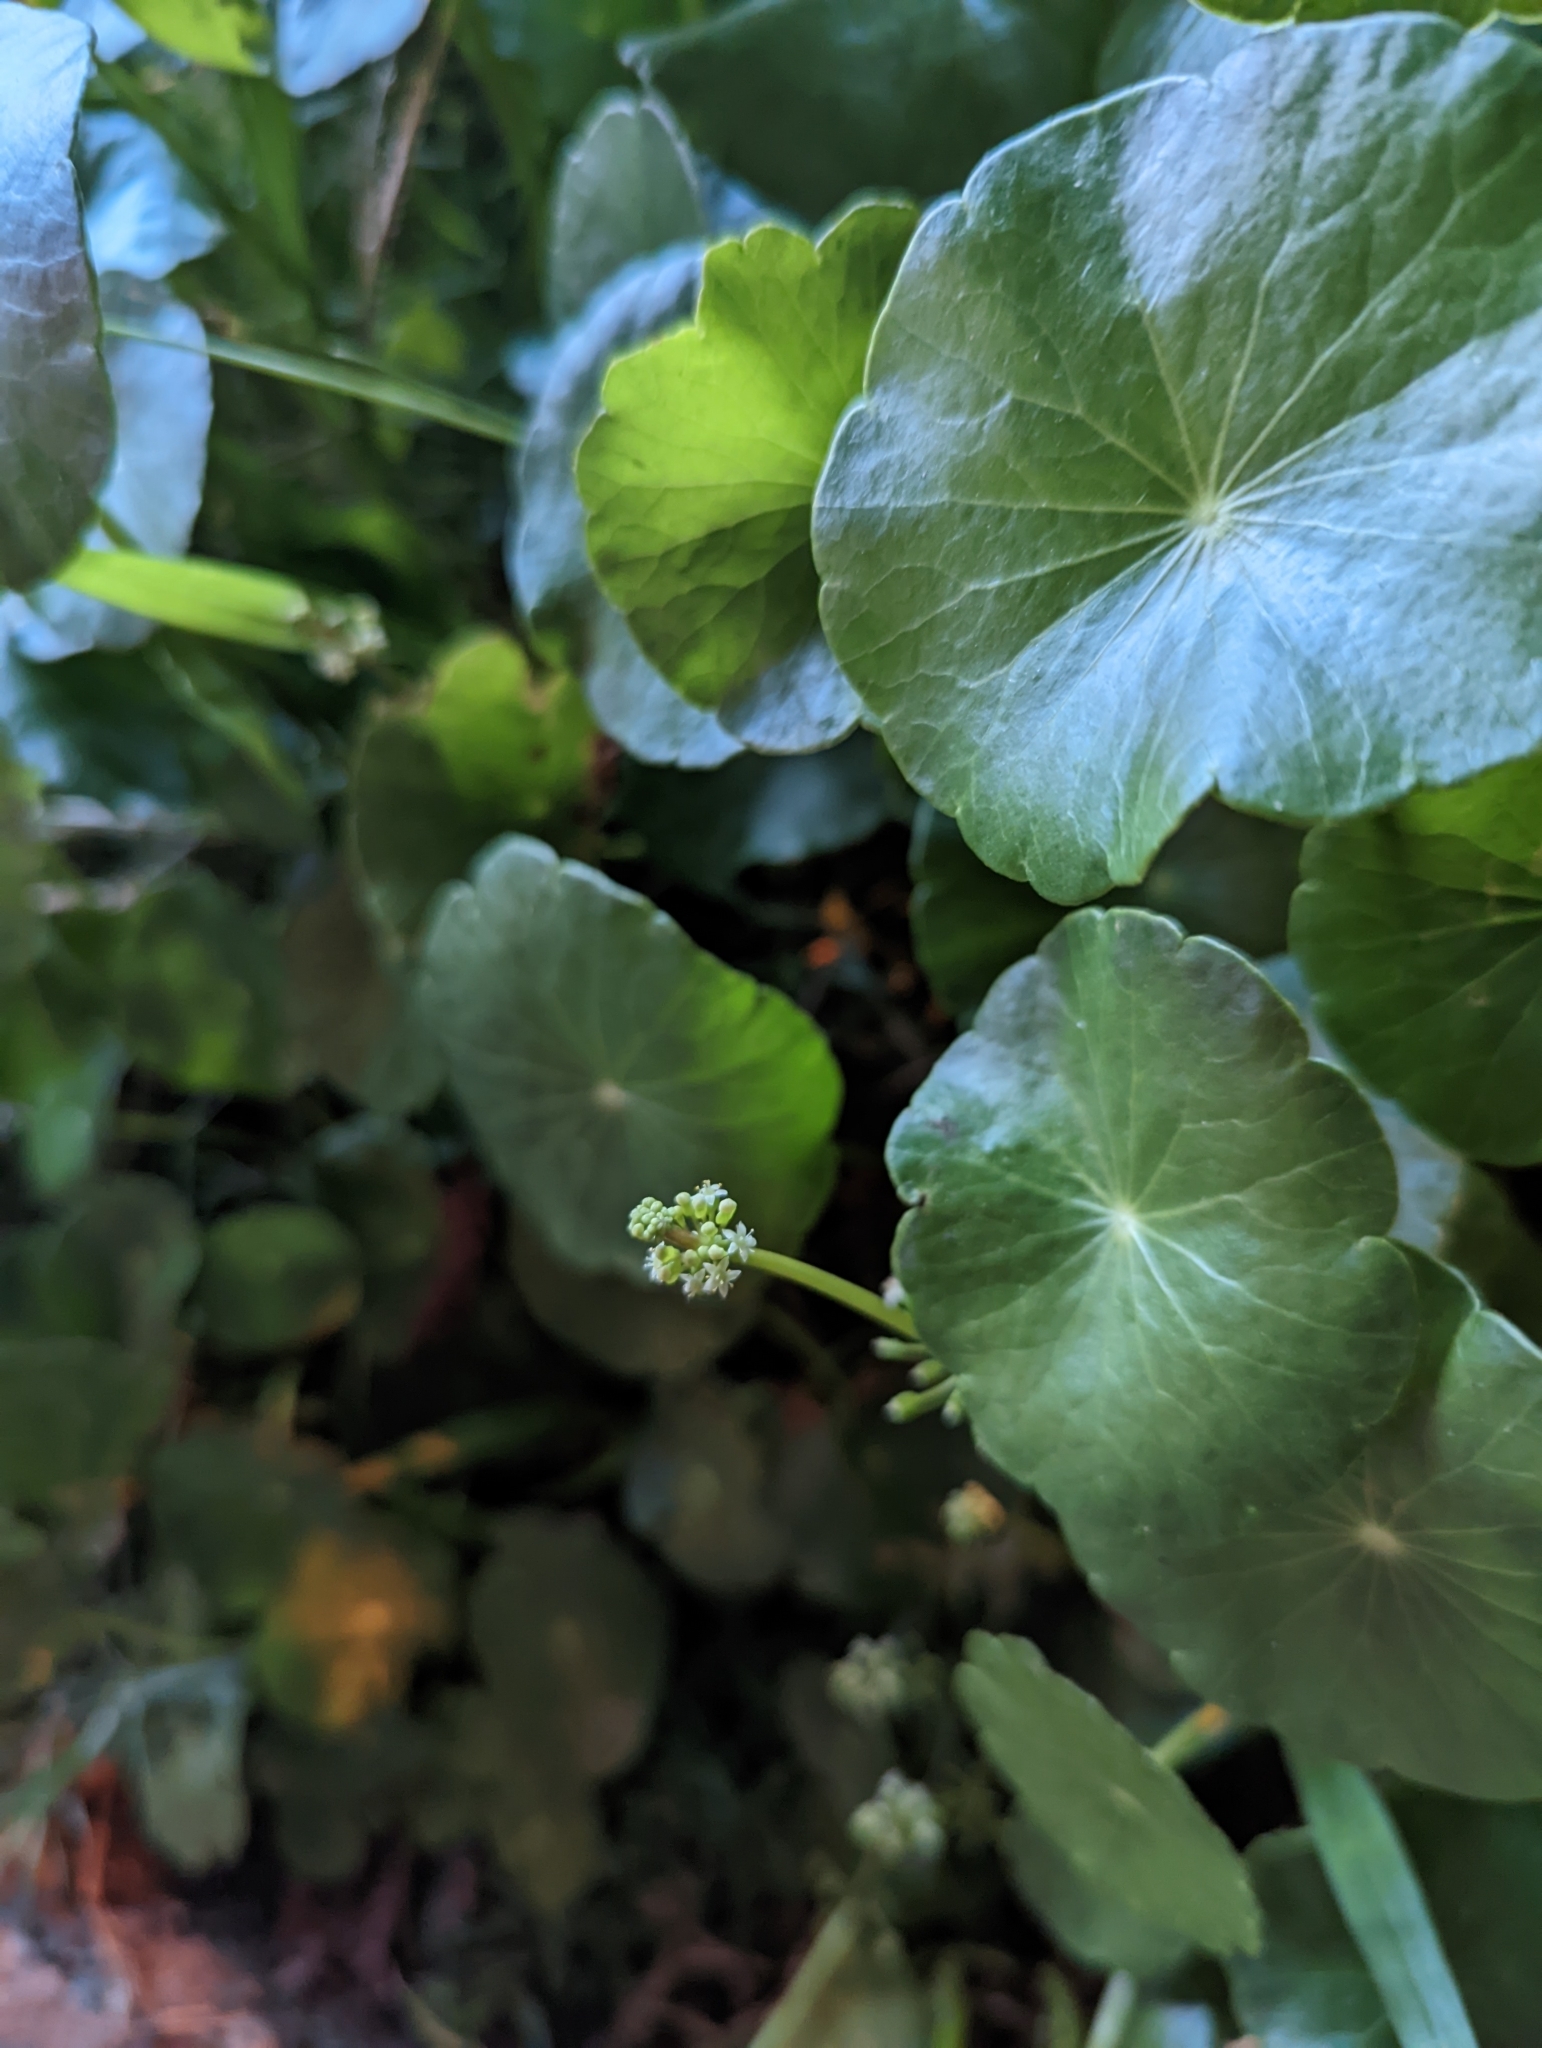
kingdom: Plantae
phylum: Tracheophyta
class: Magnoliopsida
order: Apiales
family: Araliaceae
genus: Hydrocotyle
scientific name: Hydrocotyle verticillata
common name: Whorled marshpennywort
